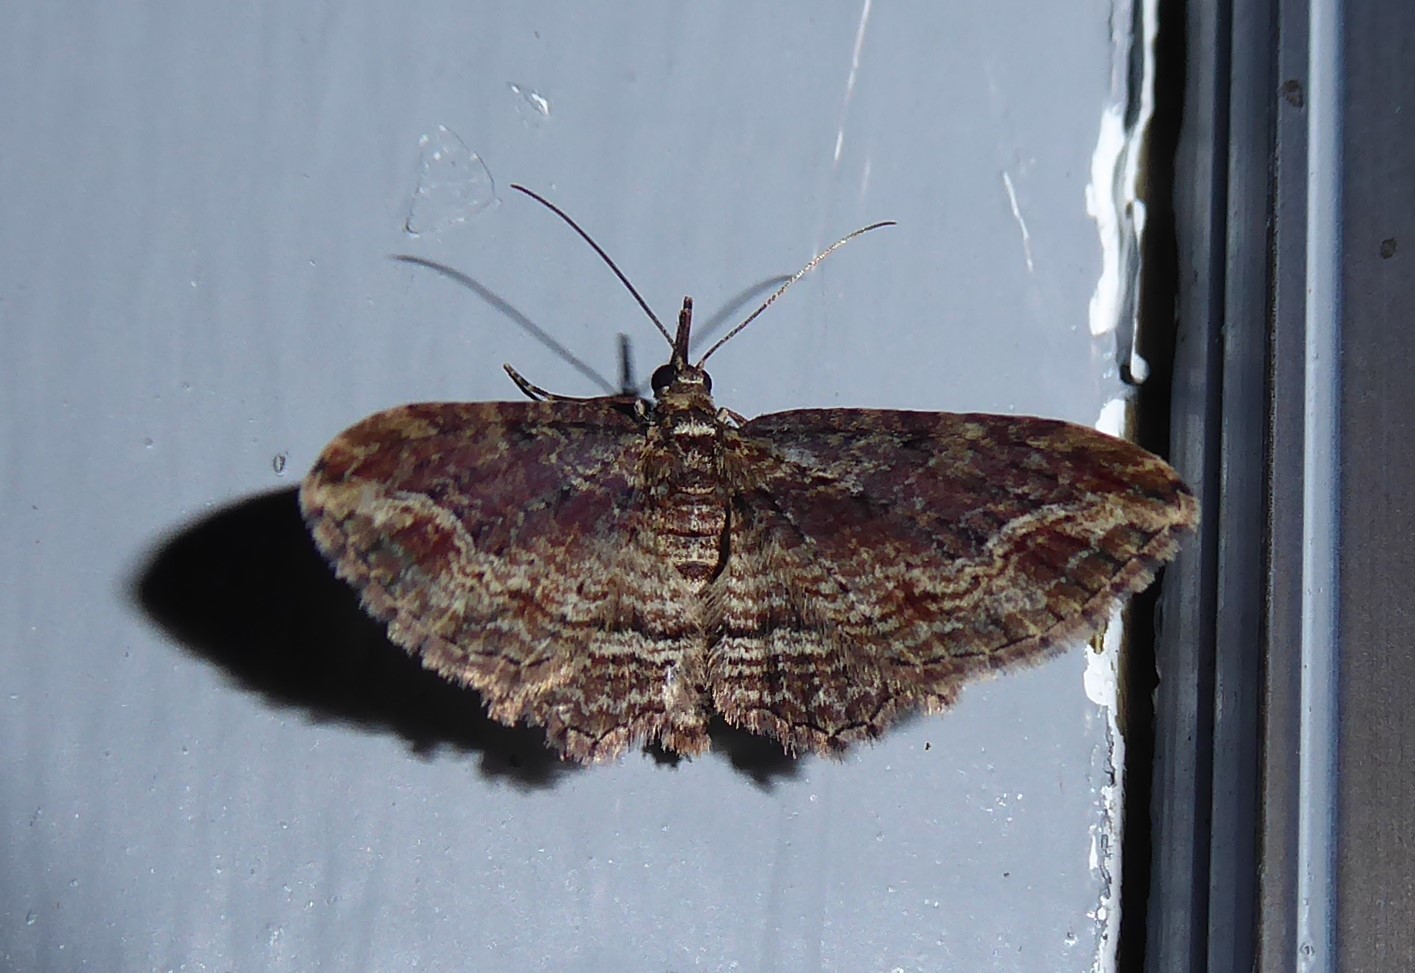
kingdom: Animalia
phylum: Arthropoda
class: Insecta
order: Lepidoptera
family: Geometridae
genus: Chloroclystis
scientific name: Chloroclystis filata
